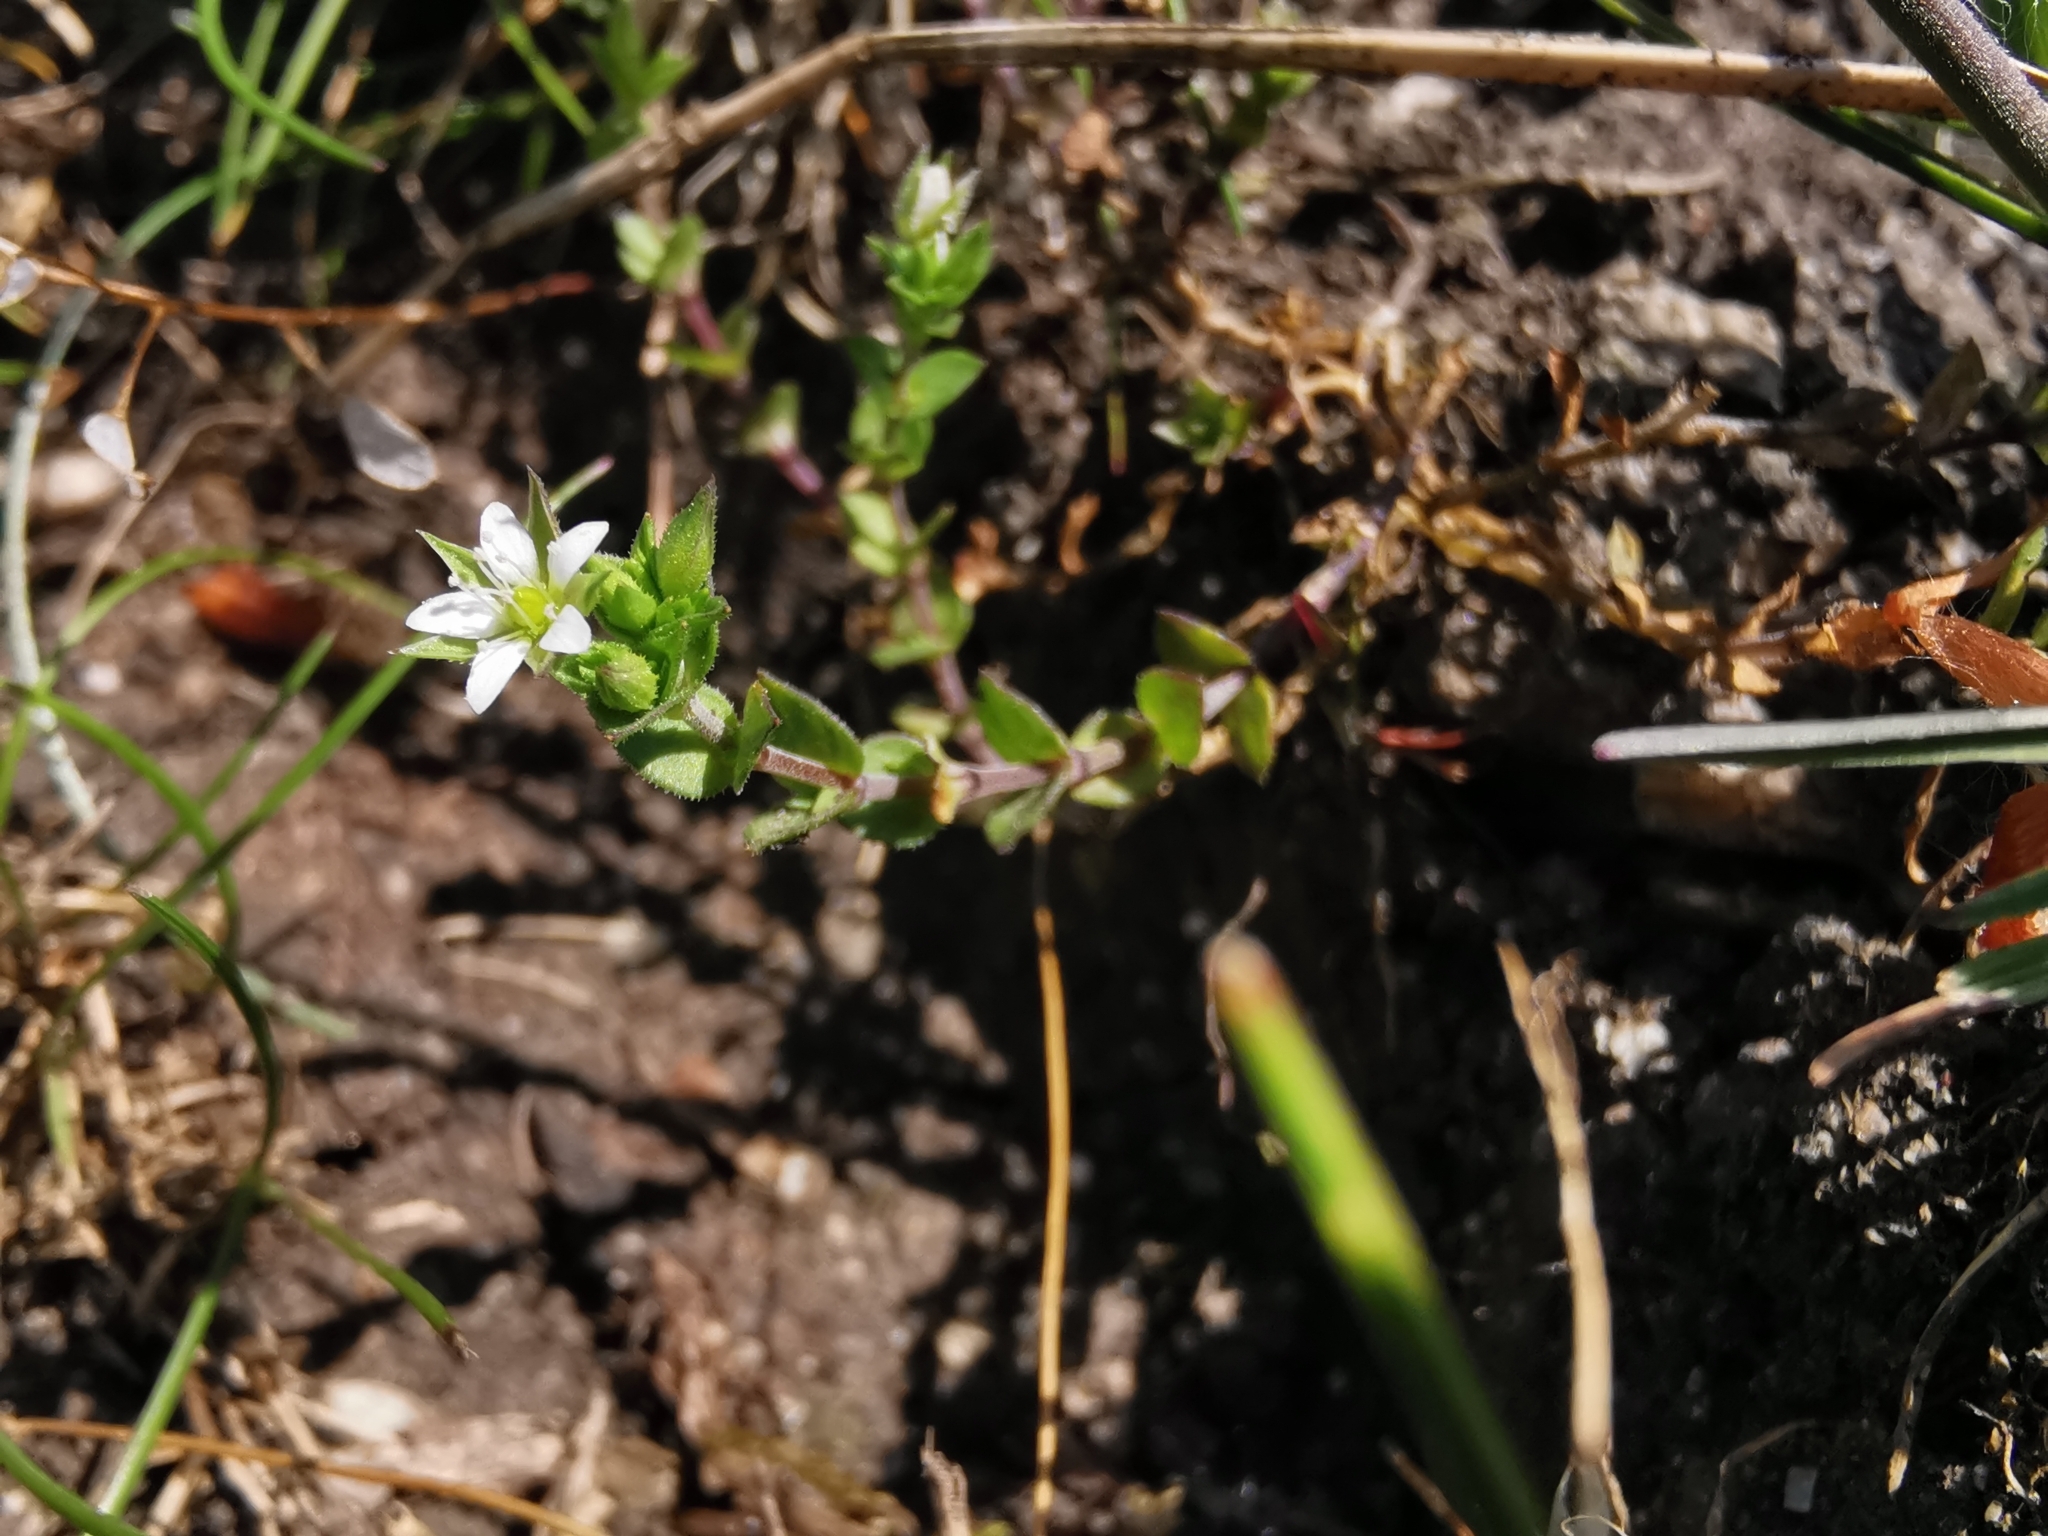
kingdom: Plantae
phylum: Tracheophyta
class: Magnoliopsida
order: Caryophyllales
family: Caryophyllaceae
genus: Arenaria
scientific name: Arenaria serpyllifolia
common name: Thyme-leaved sandwort
